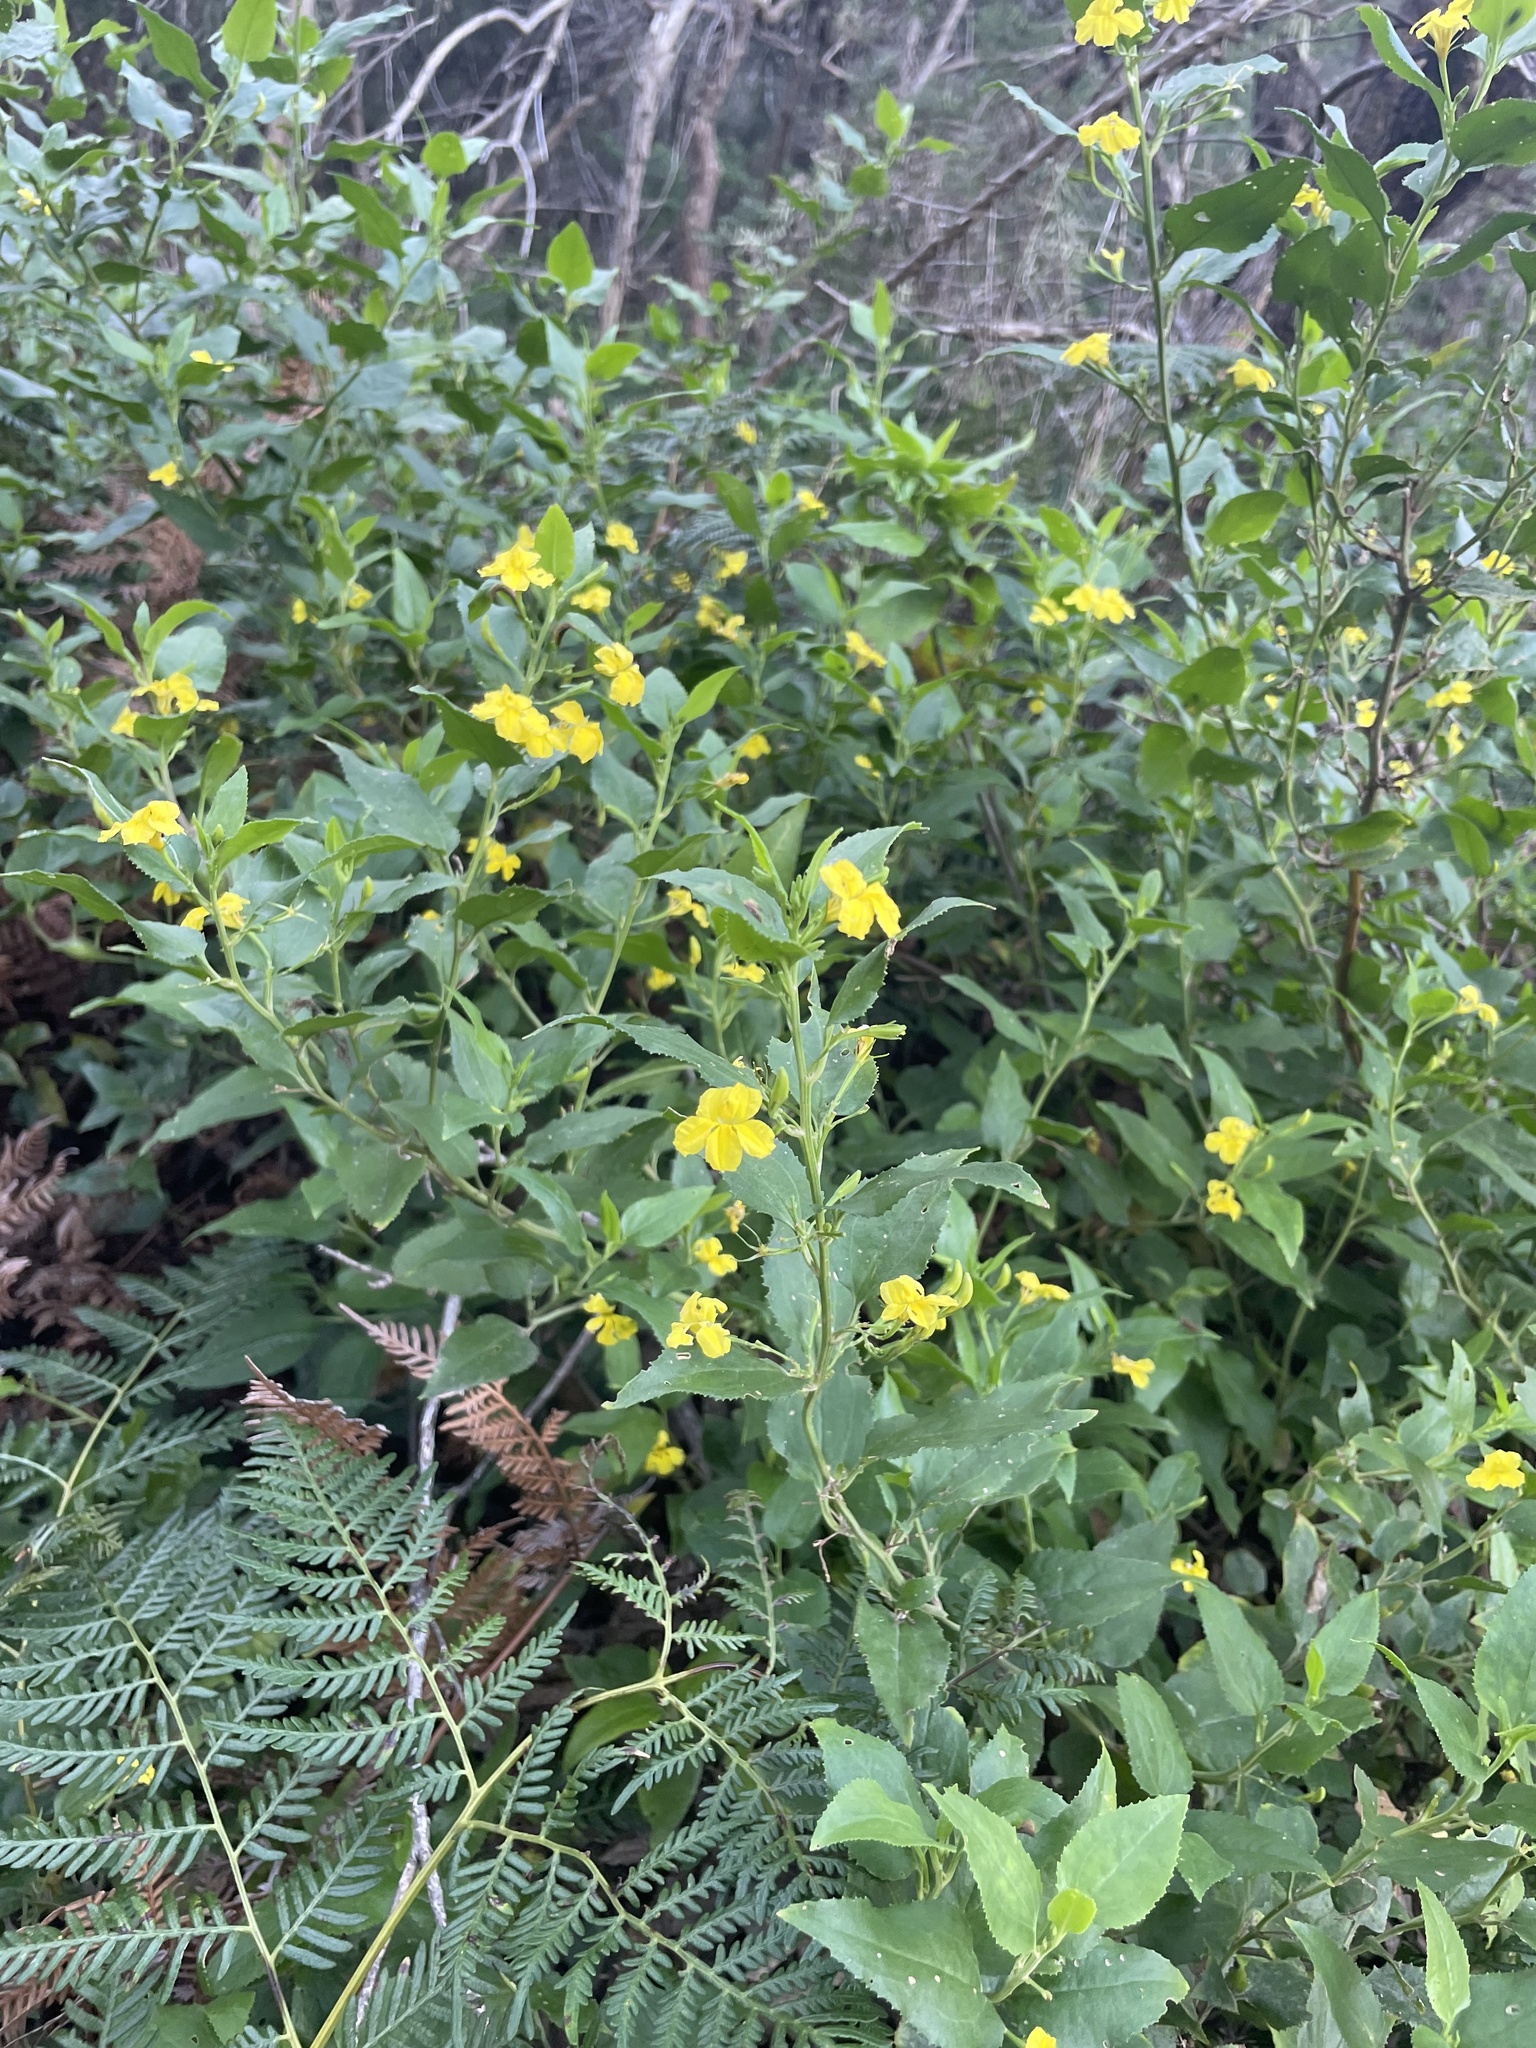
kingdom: Plantae
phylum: Tracheophyta
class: Magnoliopsida
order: Asterales
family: Goodeniaceae
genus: Goodenia
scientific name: Goodenia ovata
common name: Hop goodenia
